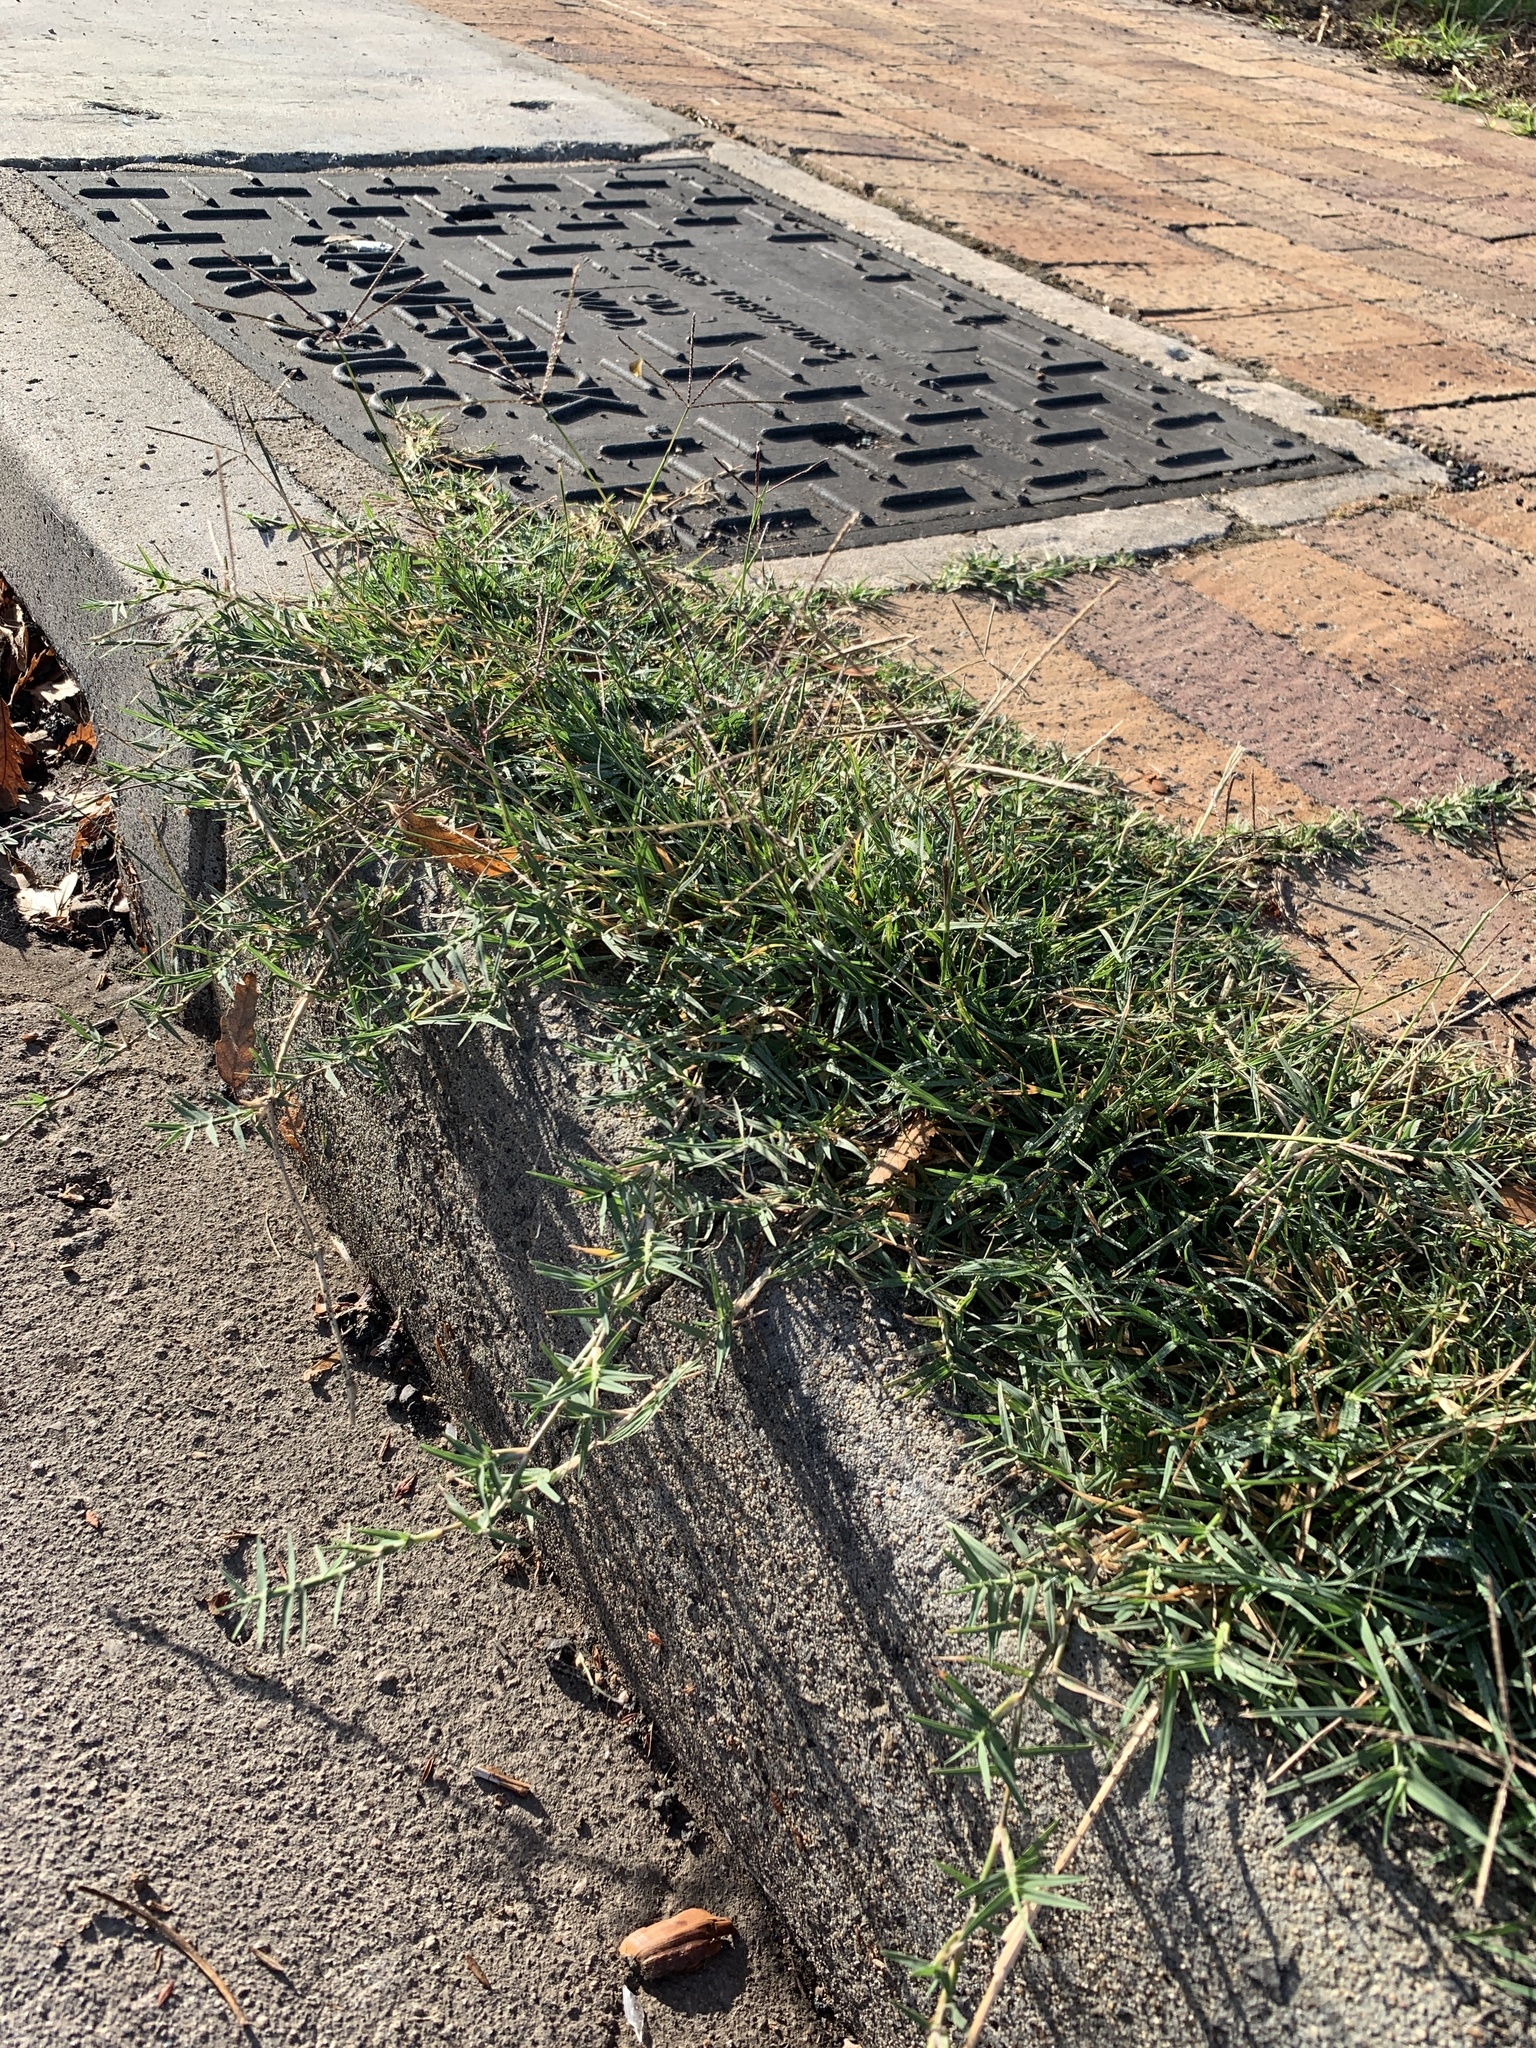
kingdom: Plantae
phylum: Tracheophyta
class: Liliopsida
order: Poales
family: Poaceae
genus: Cynodon
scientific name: Cynodon dactylon
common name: Bermuda grass
